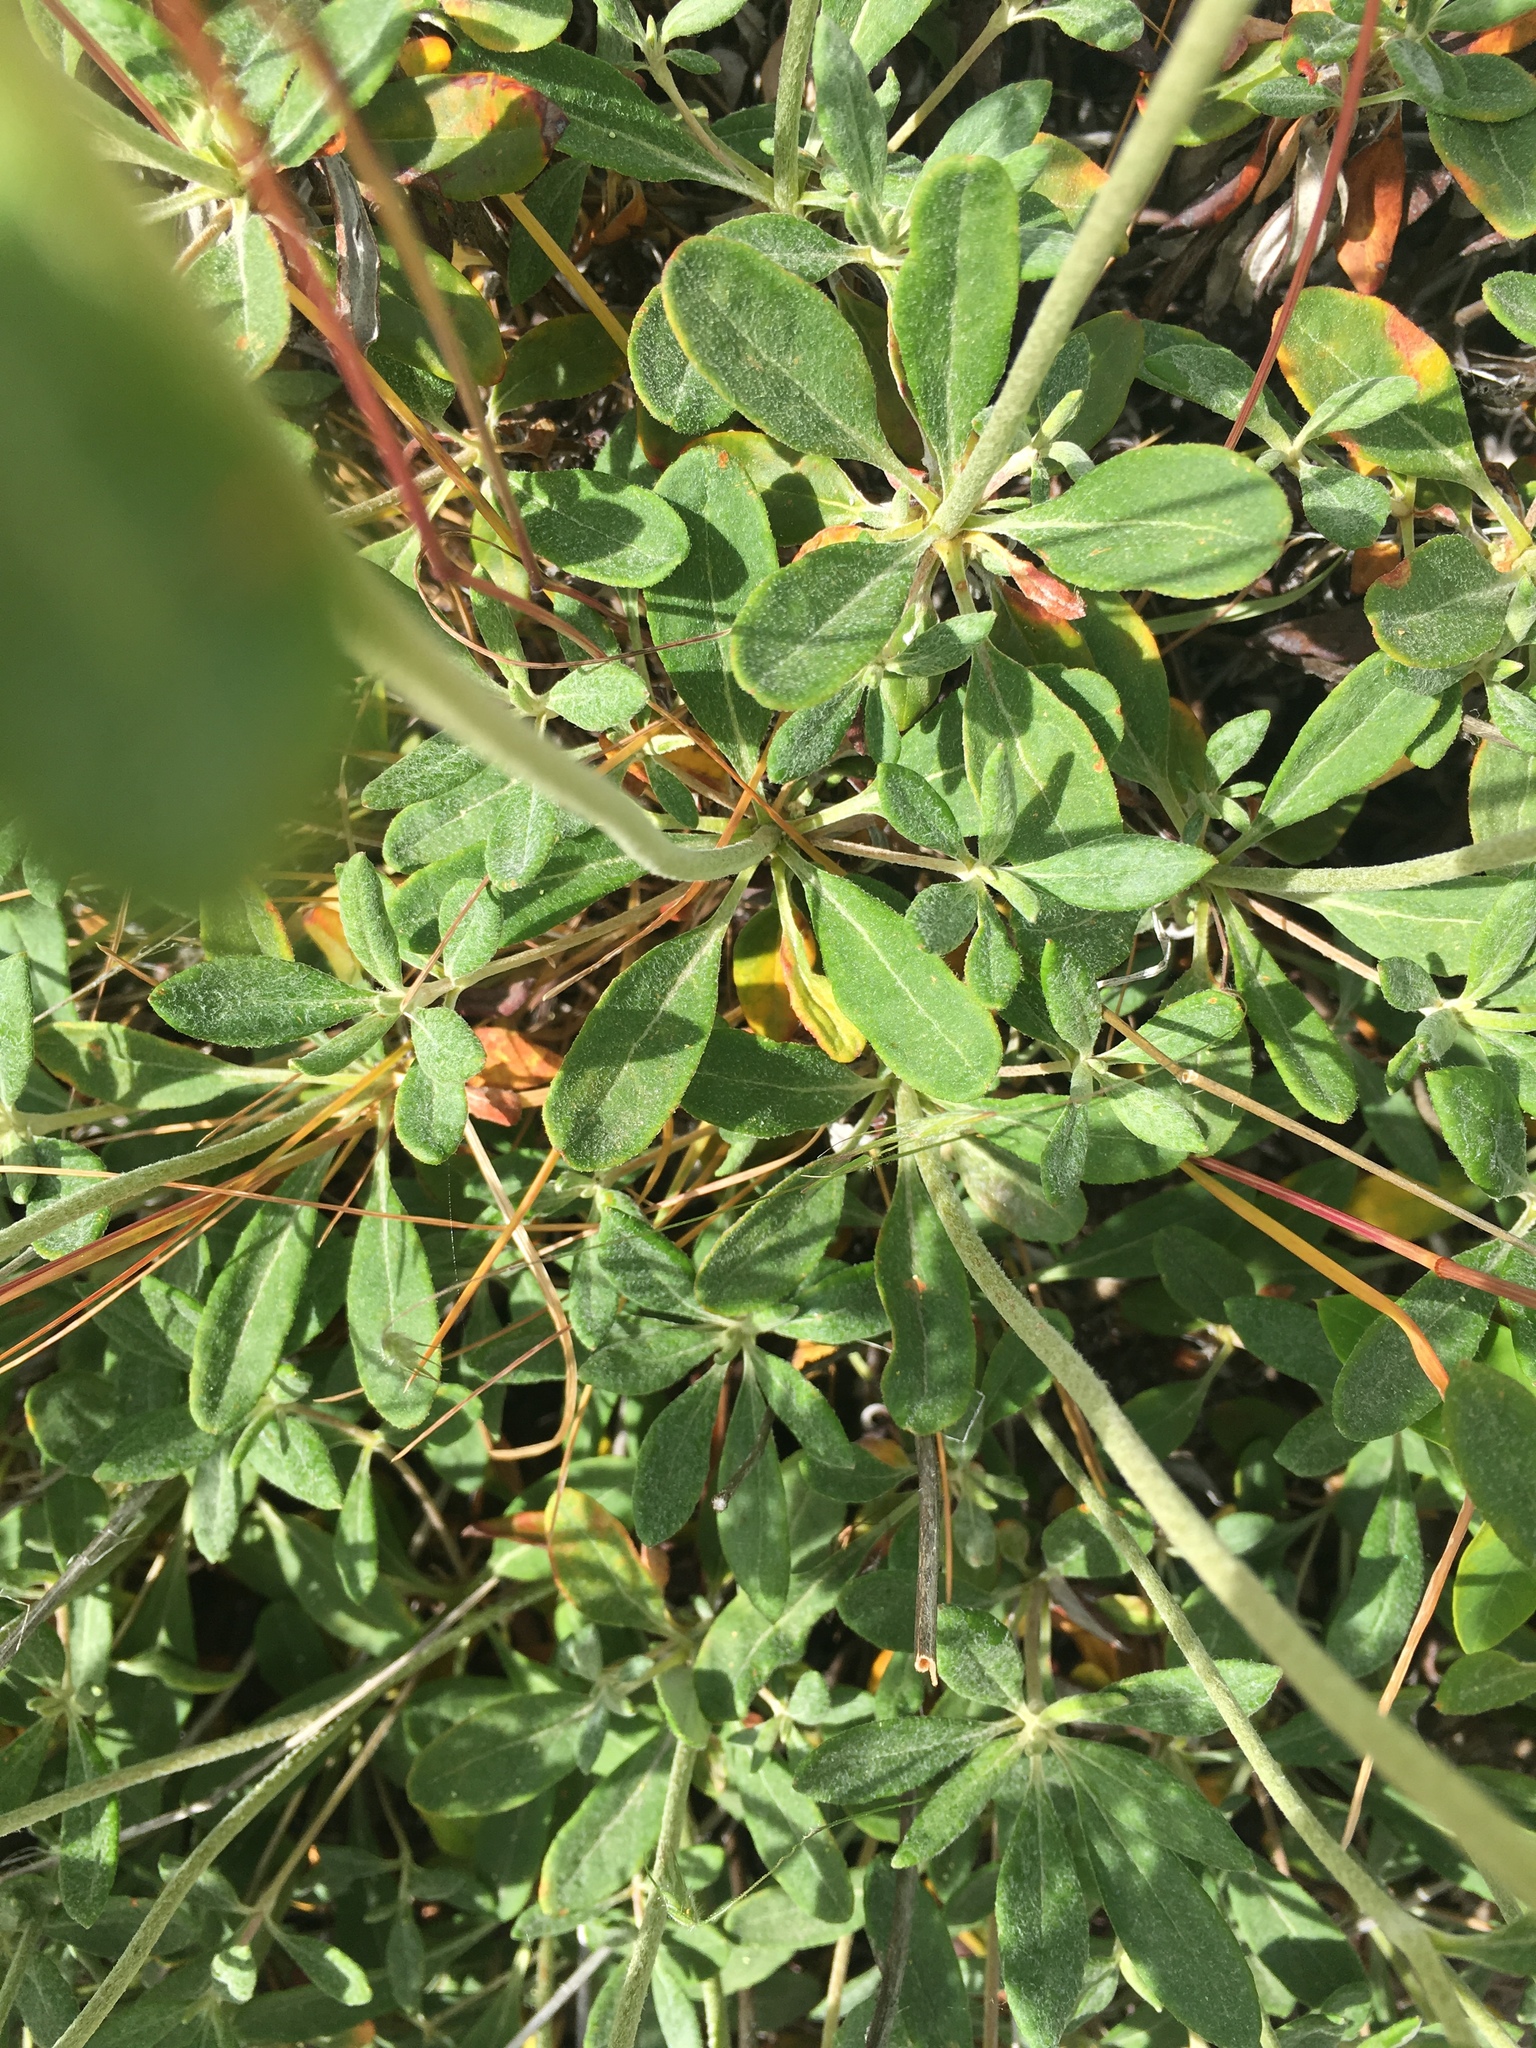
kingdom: Plantae
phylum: Tracheophyta
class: Magnoliopsida
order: Caryophyllales
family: Polygonaceae
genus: Eriogonum
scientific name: Eriogonum heracleoides
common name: Wyeth's buckwheat
